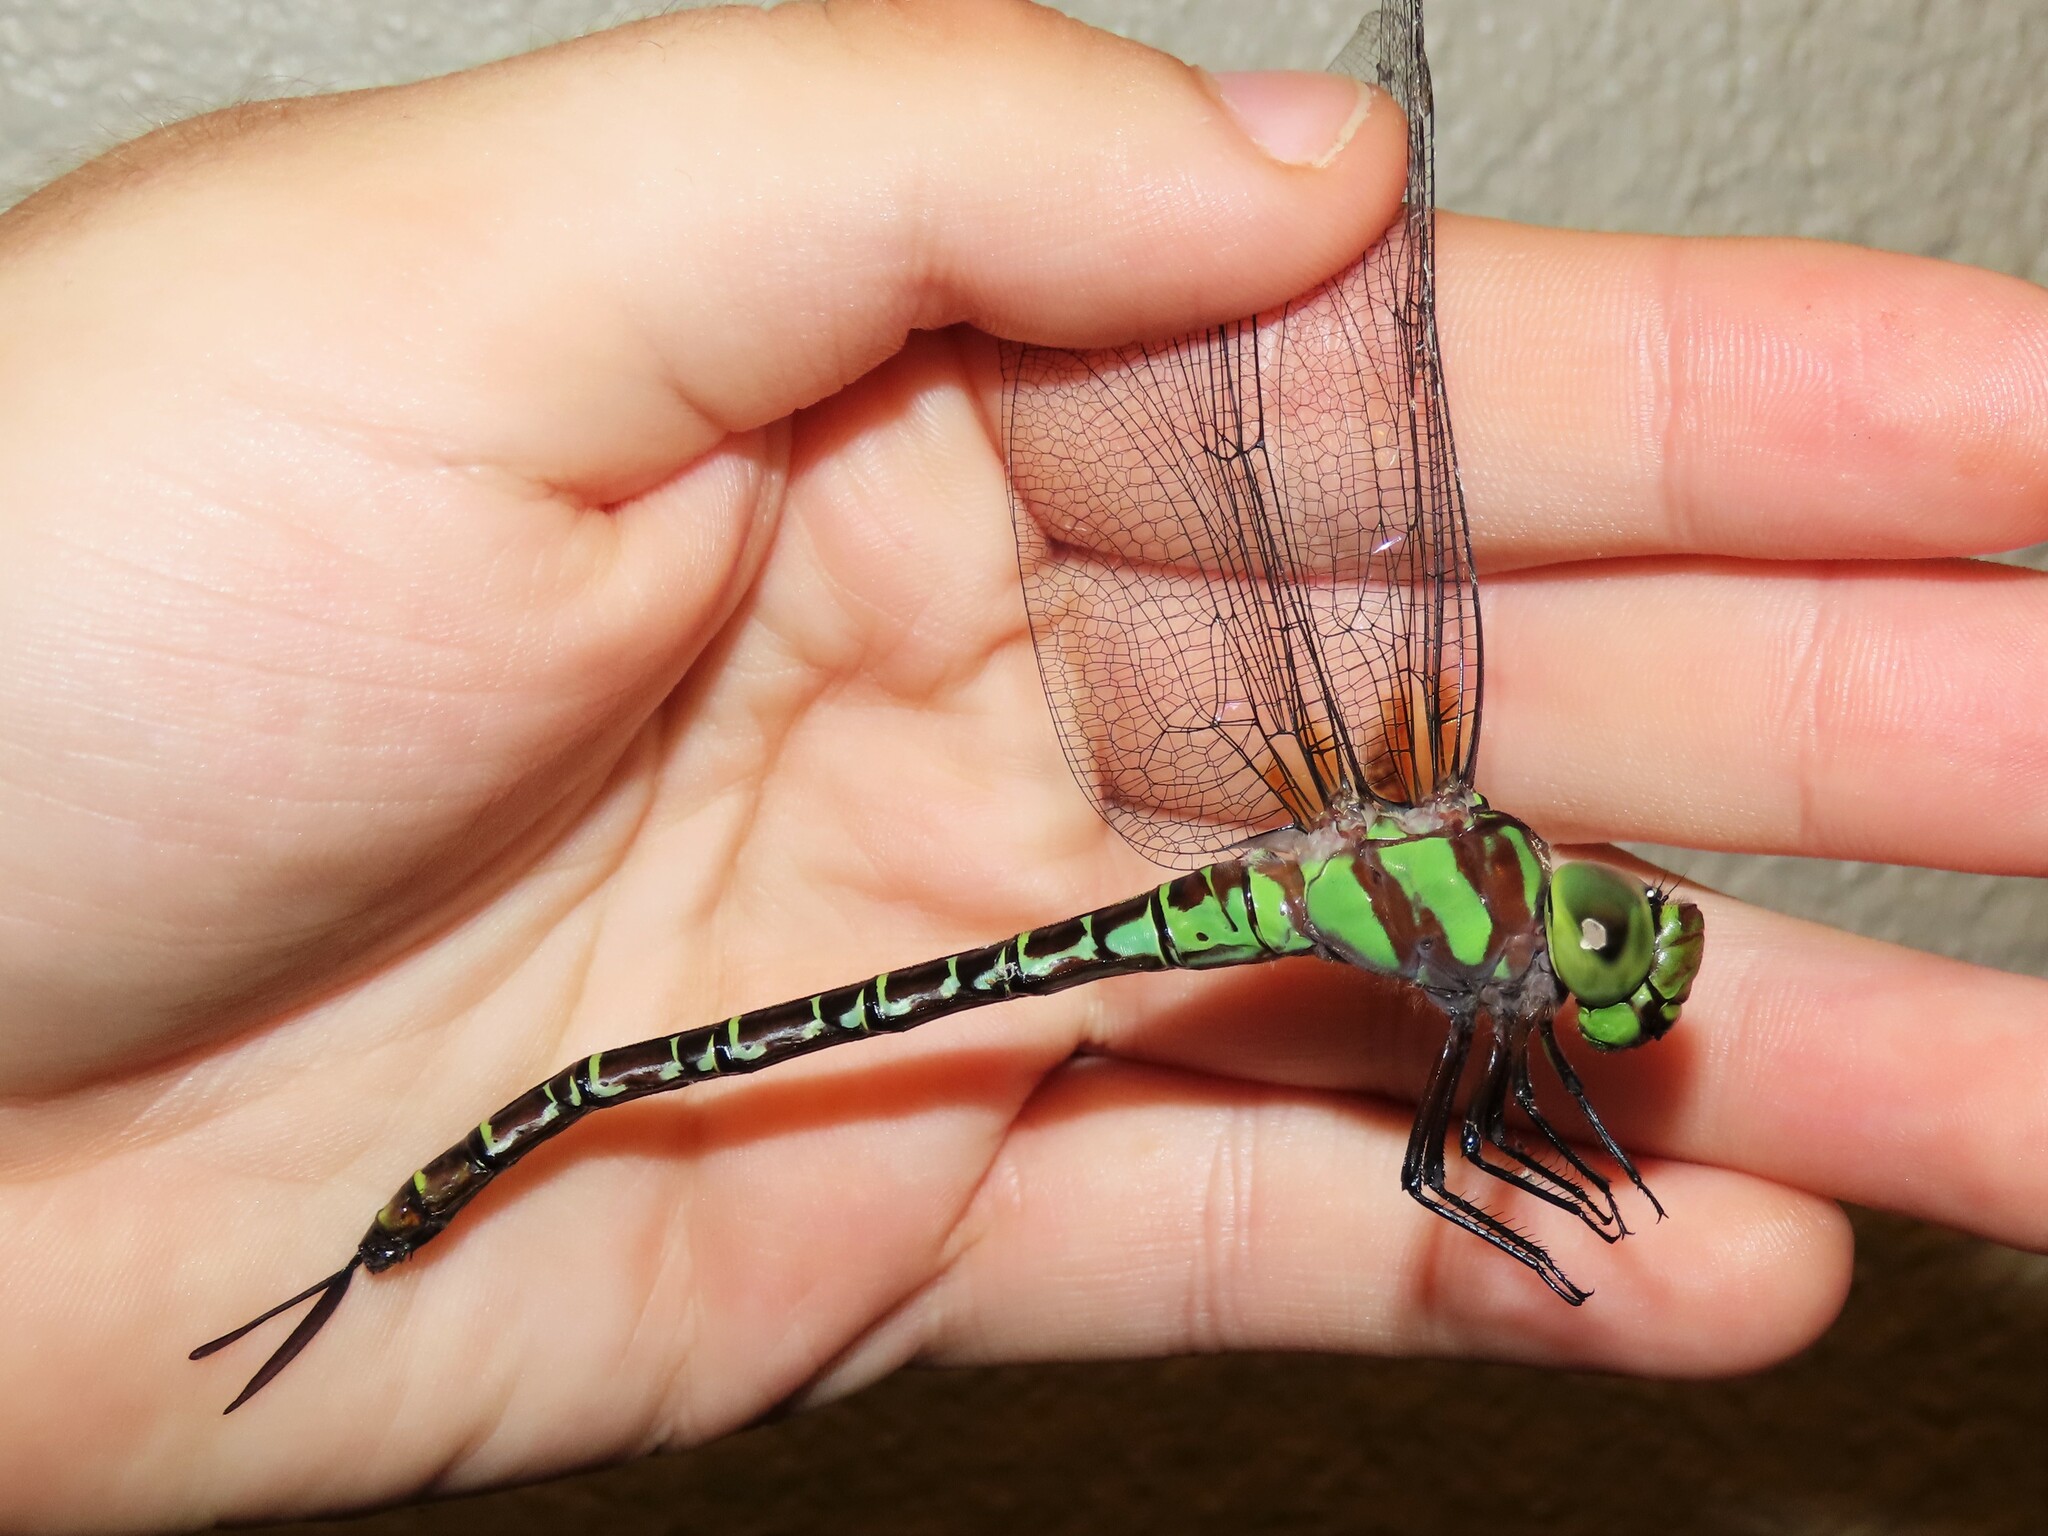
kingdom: Animalia
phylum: Arthropoda
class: Insecta
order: Odonata
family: Aeshnidae
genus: Coryphaeschna
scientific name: Coryphaeschna ingens
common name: Regal darner
